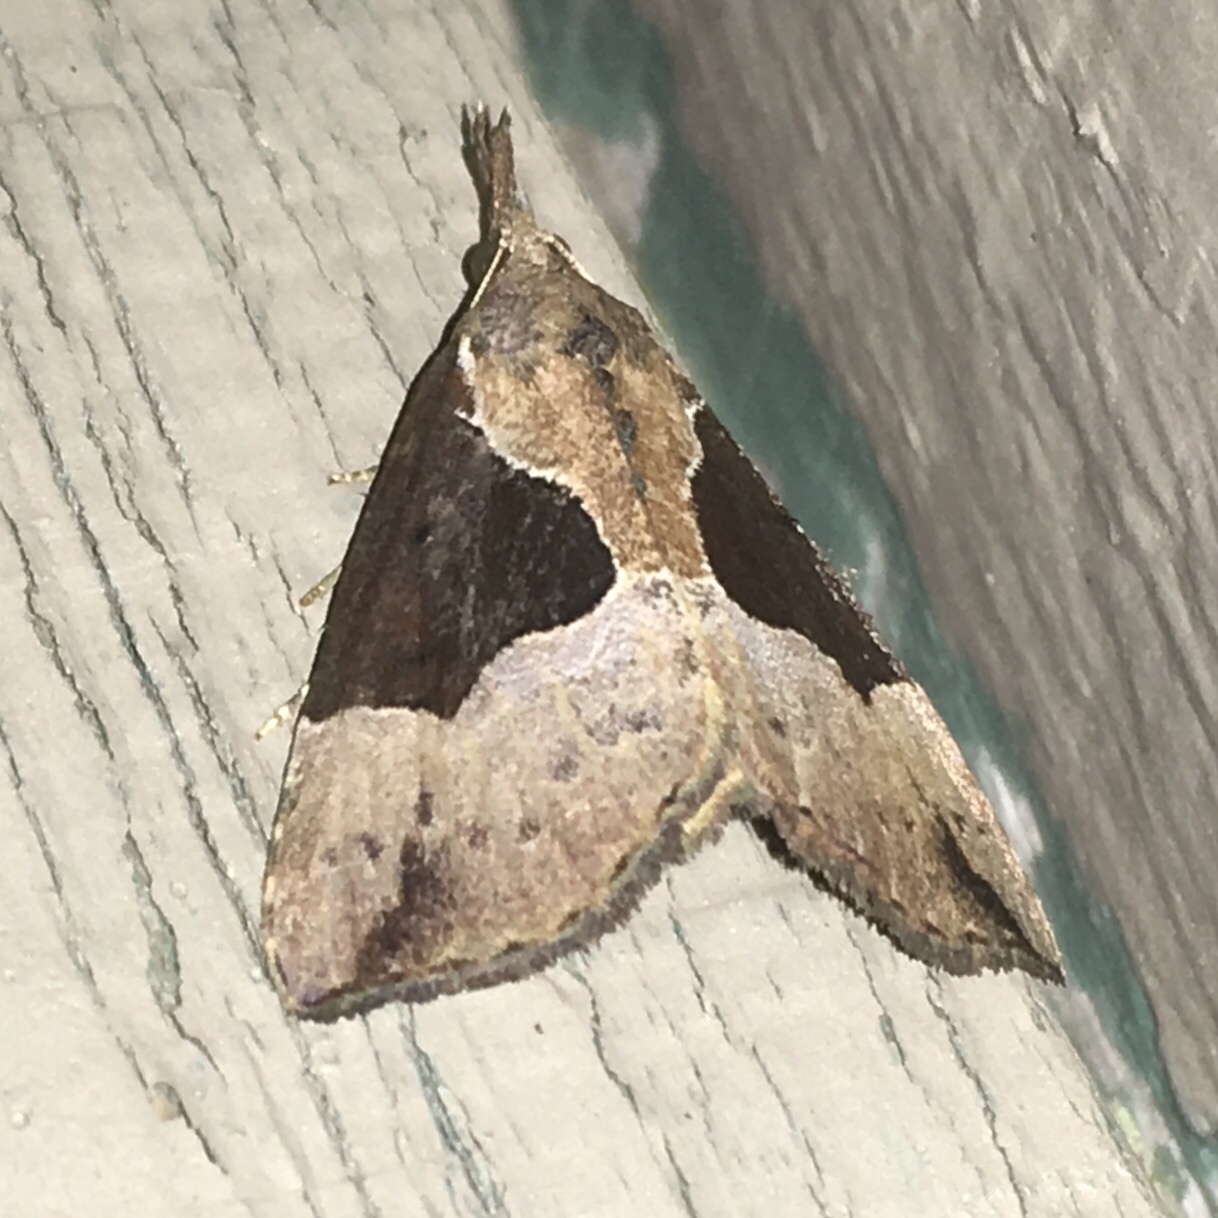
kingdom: Animalia
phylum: Arthropoda
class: Insecta
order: Lepidoptera
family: Erebidae
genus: Hypena
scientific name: Hypena bijugalis
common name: Dimorphic bomolocha moth
